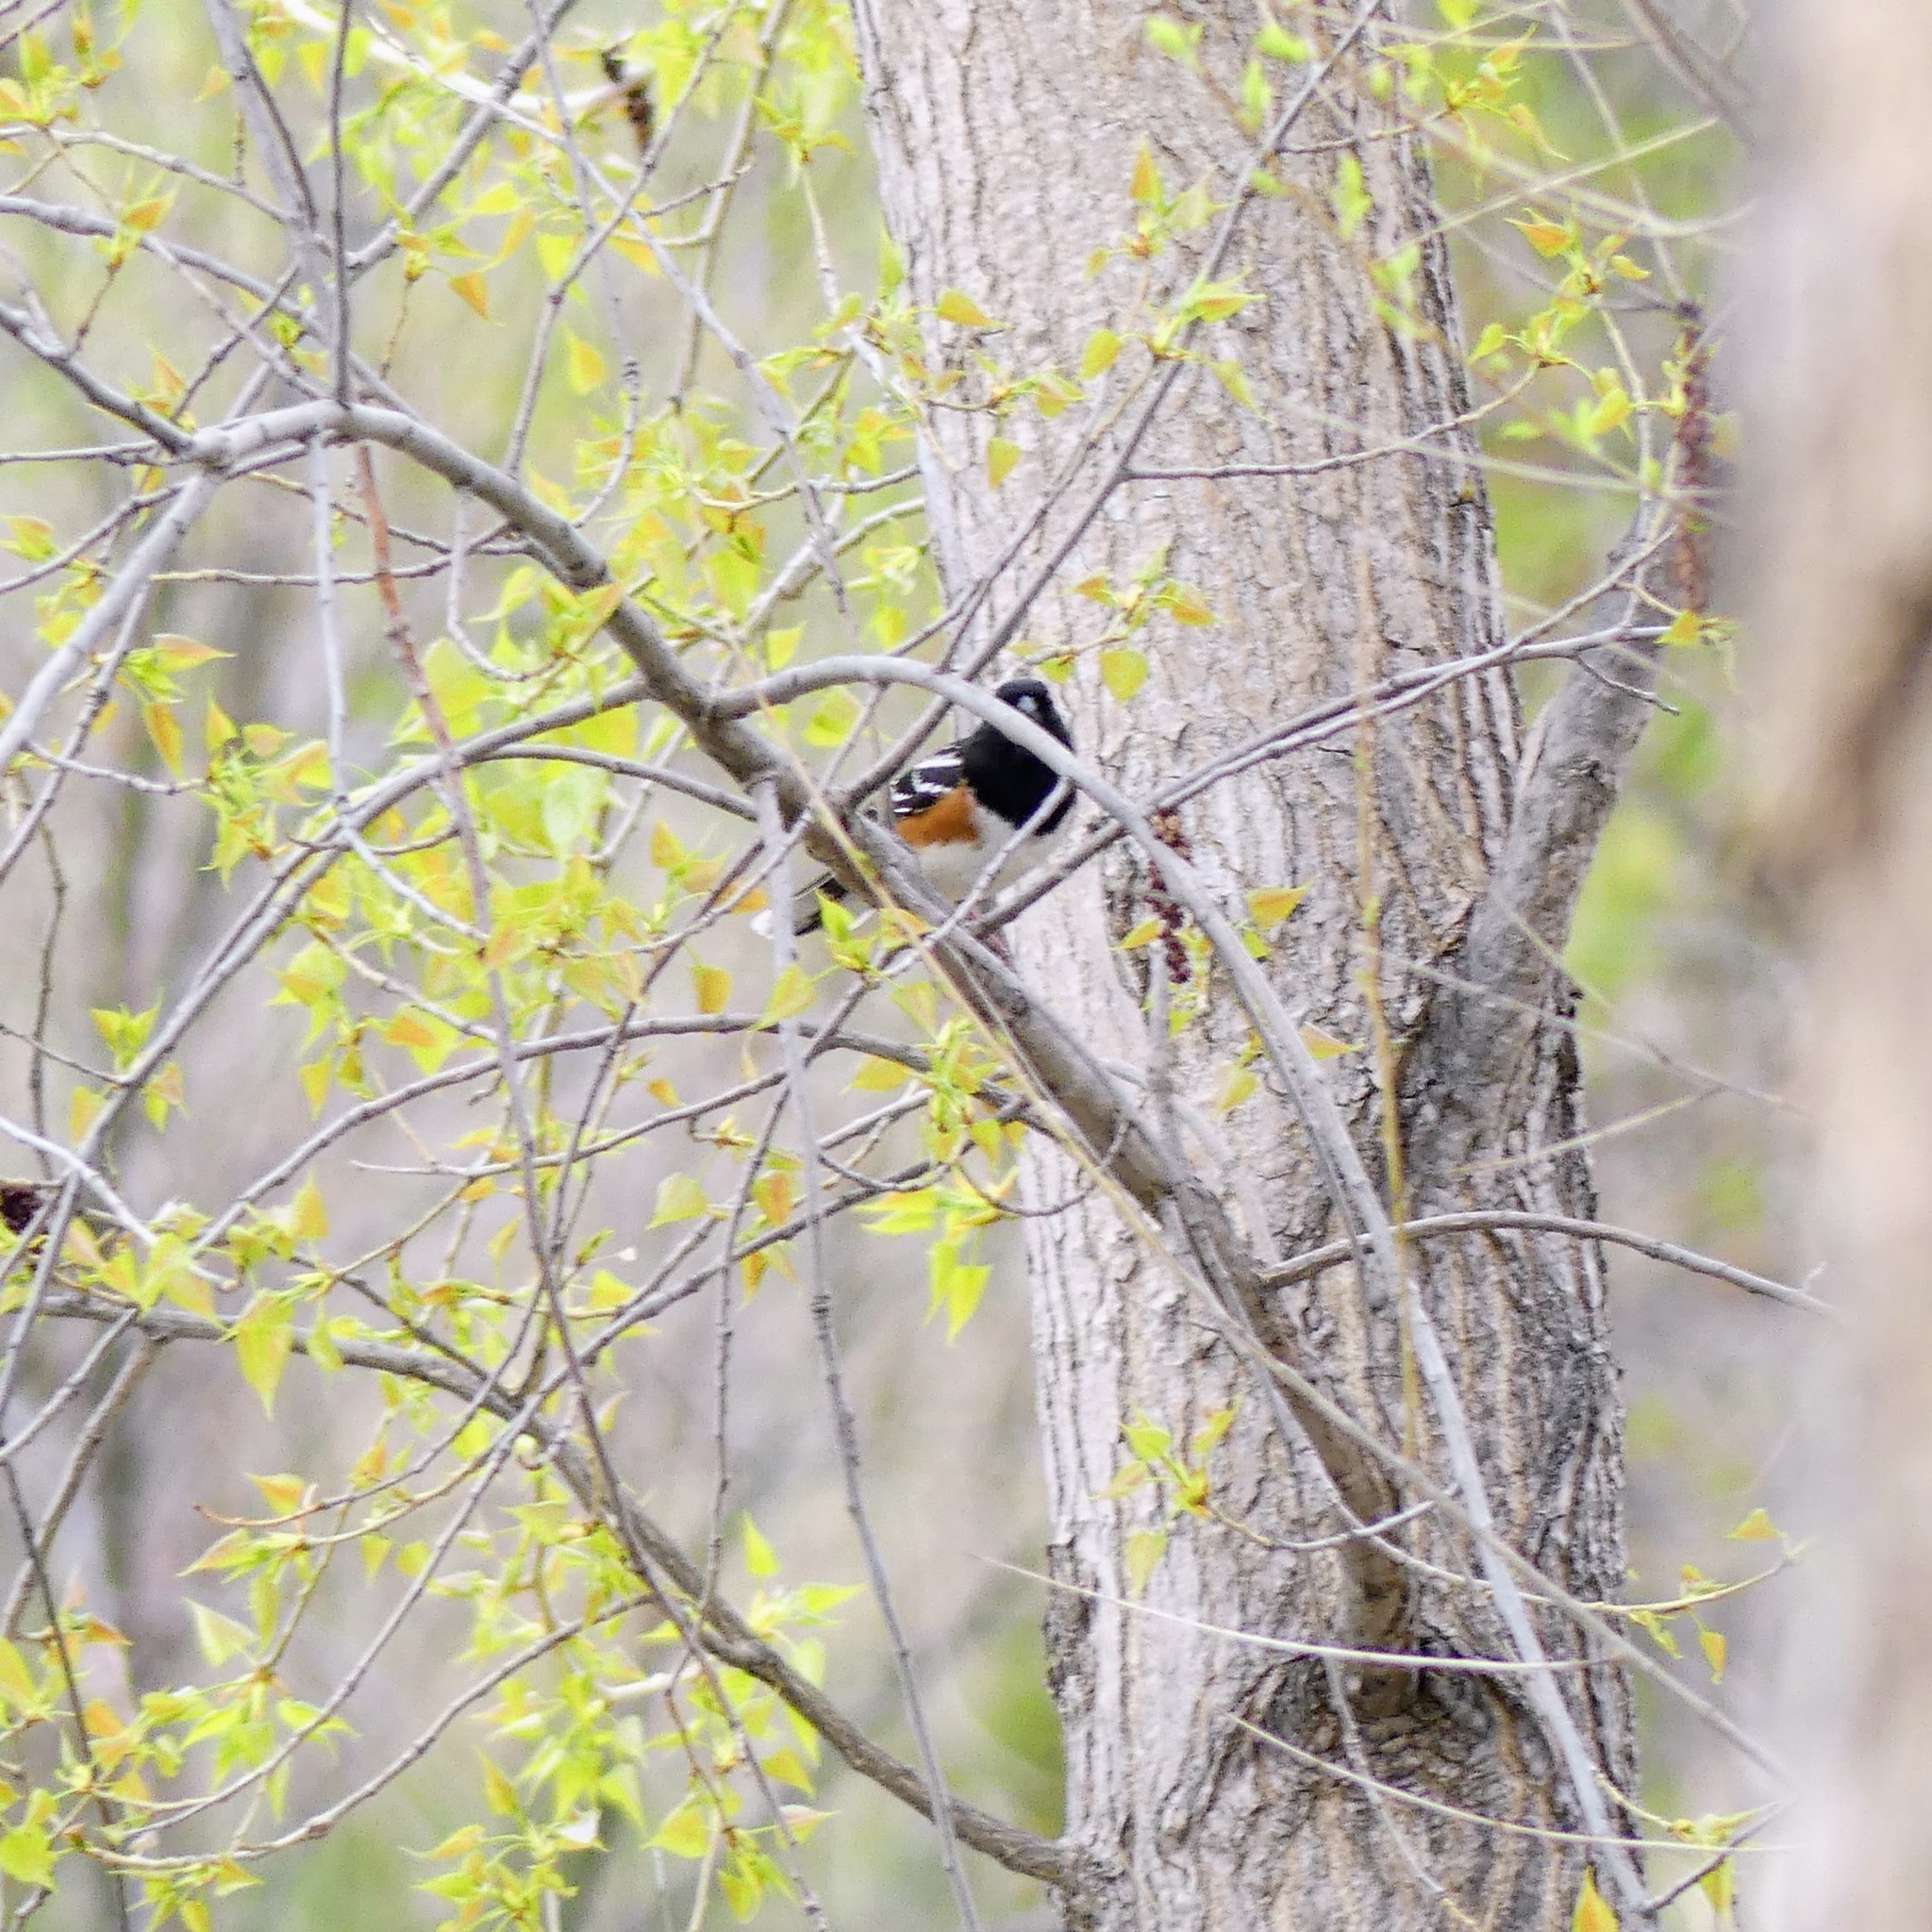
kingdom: Animalia
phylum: Chordata
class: Aves
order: Passeriformes
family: Passerellidae
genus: Pipilo
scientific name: Pipilo maculatus
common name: Spotted towhee
